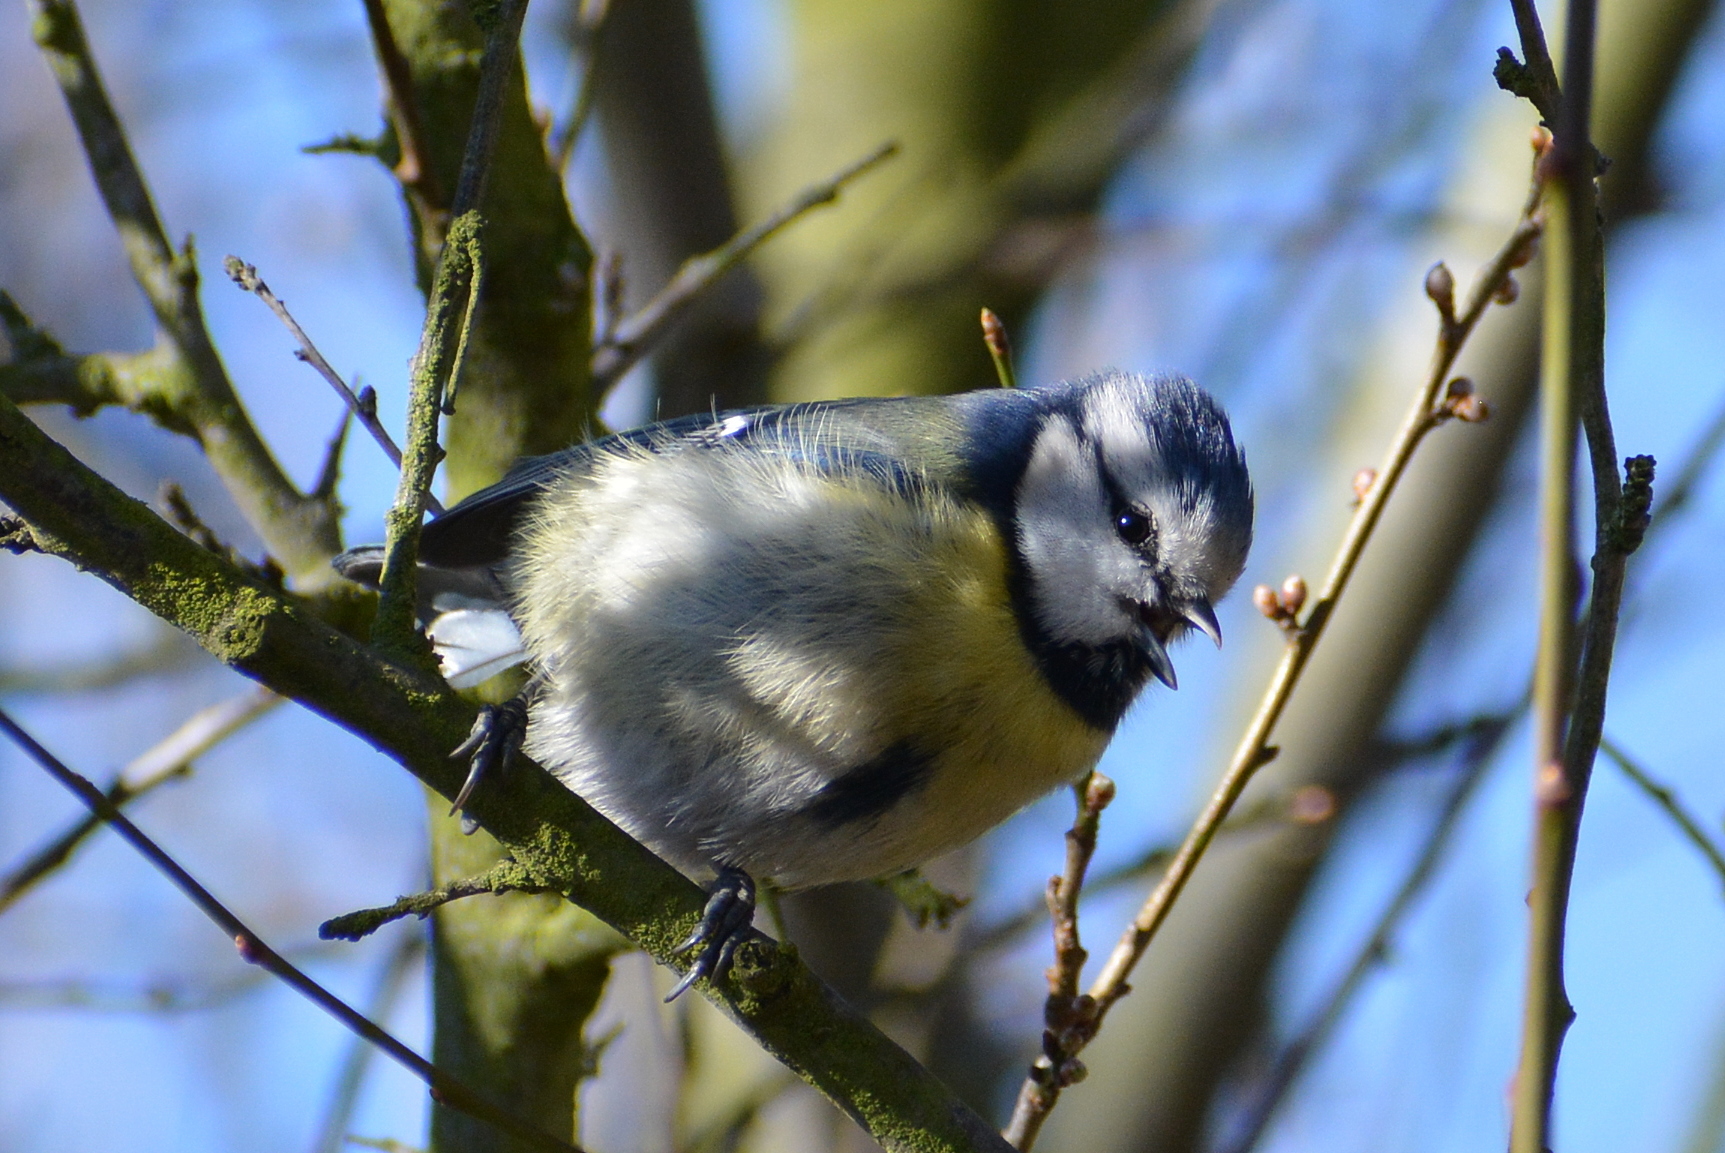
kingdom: Animalia
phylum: Chordata
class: Aves
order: Passeriformes
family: Paridae
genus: Cyanistes
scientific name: Cyanistes caeruleus
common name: Eurasian blue tit
